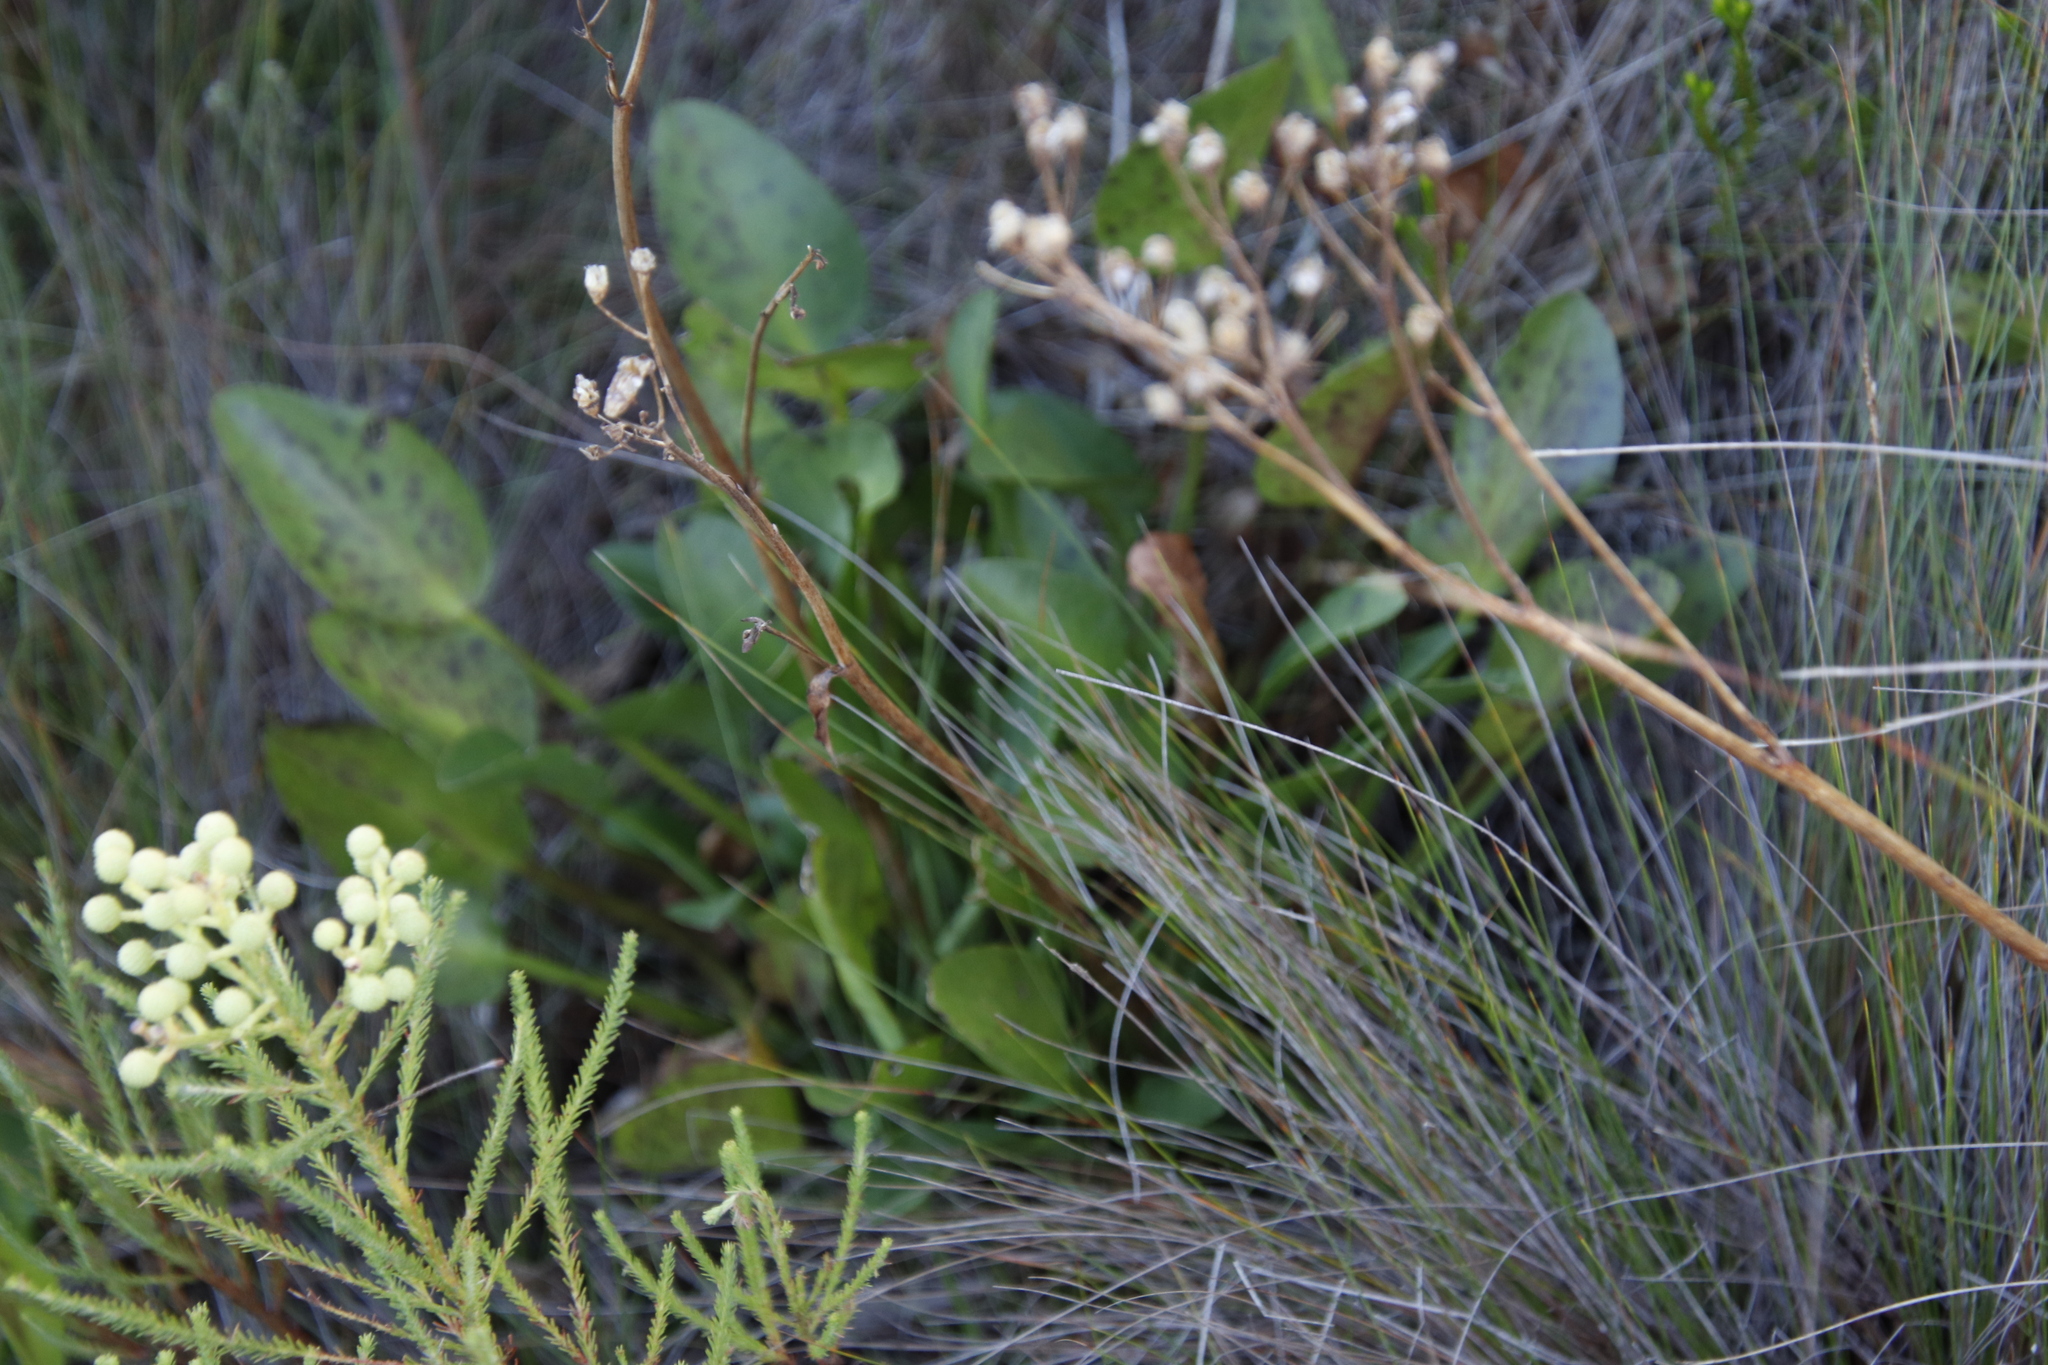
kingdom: Plantae
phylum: Tracheophyta
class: Magnoliopsida
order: Asterales
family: Menyanthaceae
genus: Villarsia
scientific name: Villarsia goldblattiana
